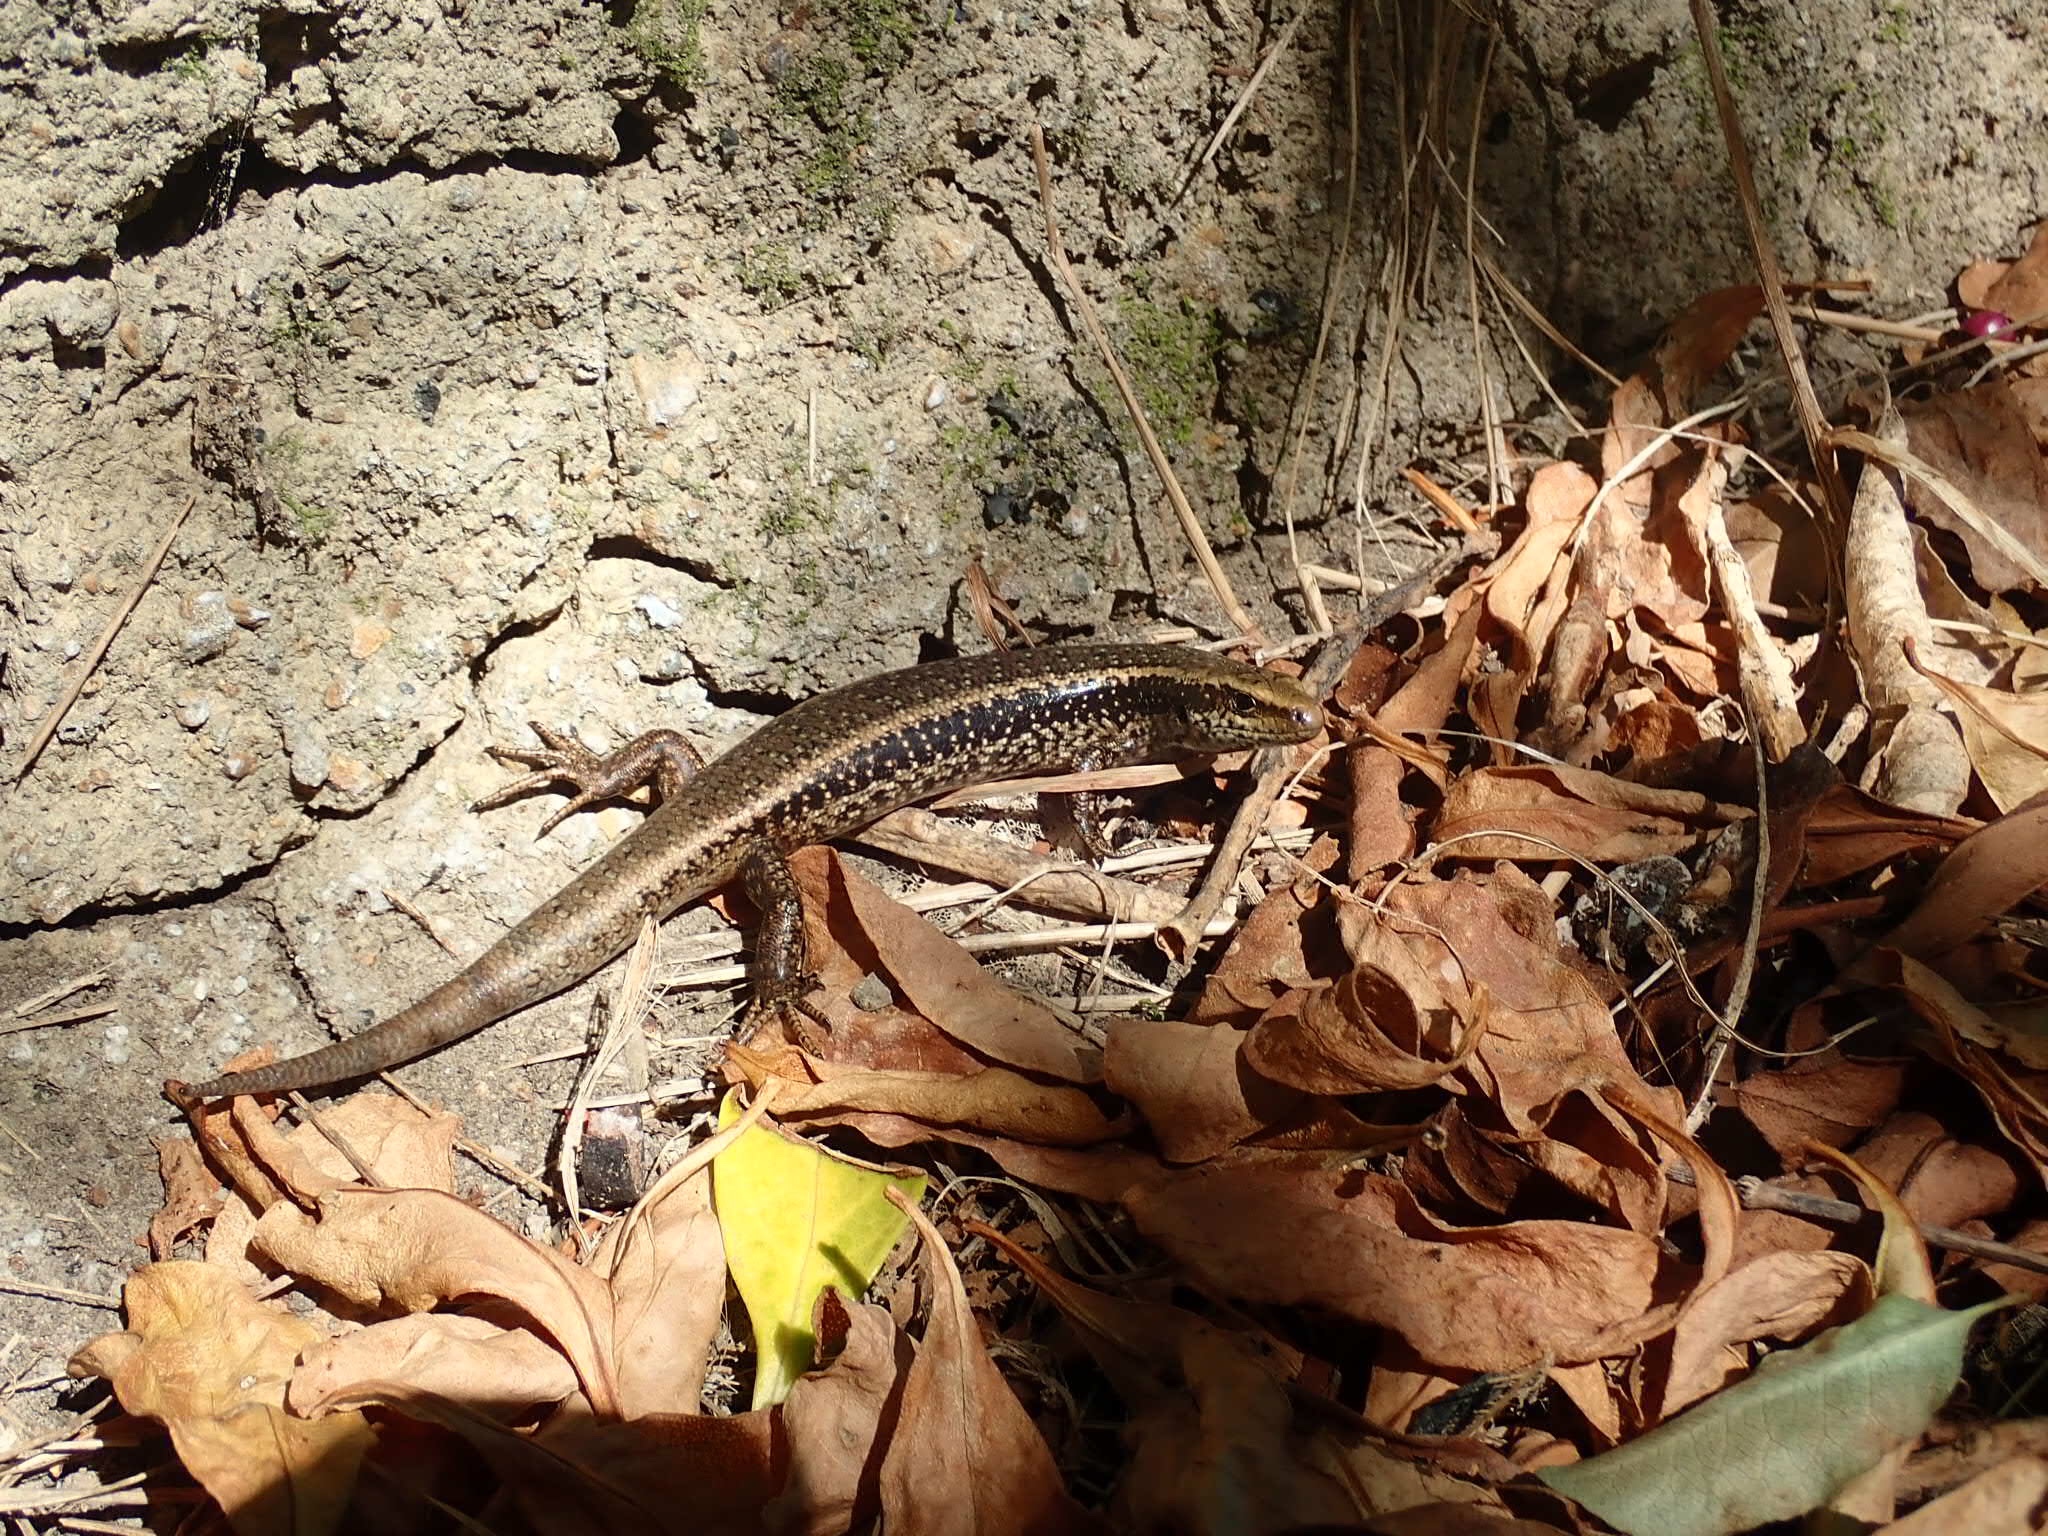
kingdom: Animalia
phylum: Chordata
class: Squamata
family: Scincidae
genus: Oligosoma
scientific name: Oligosoma kokowai
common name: Northern spotted skink
